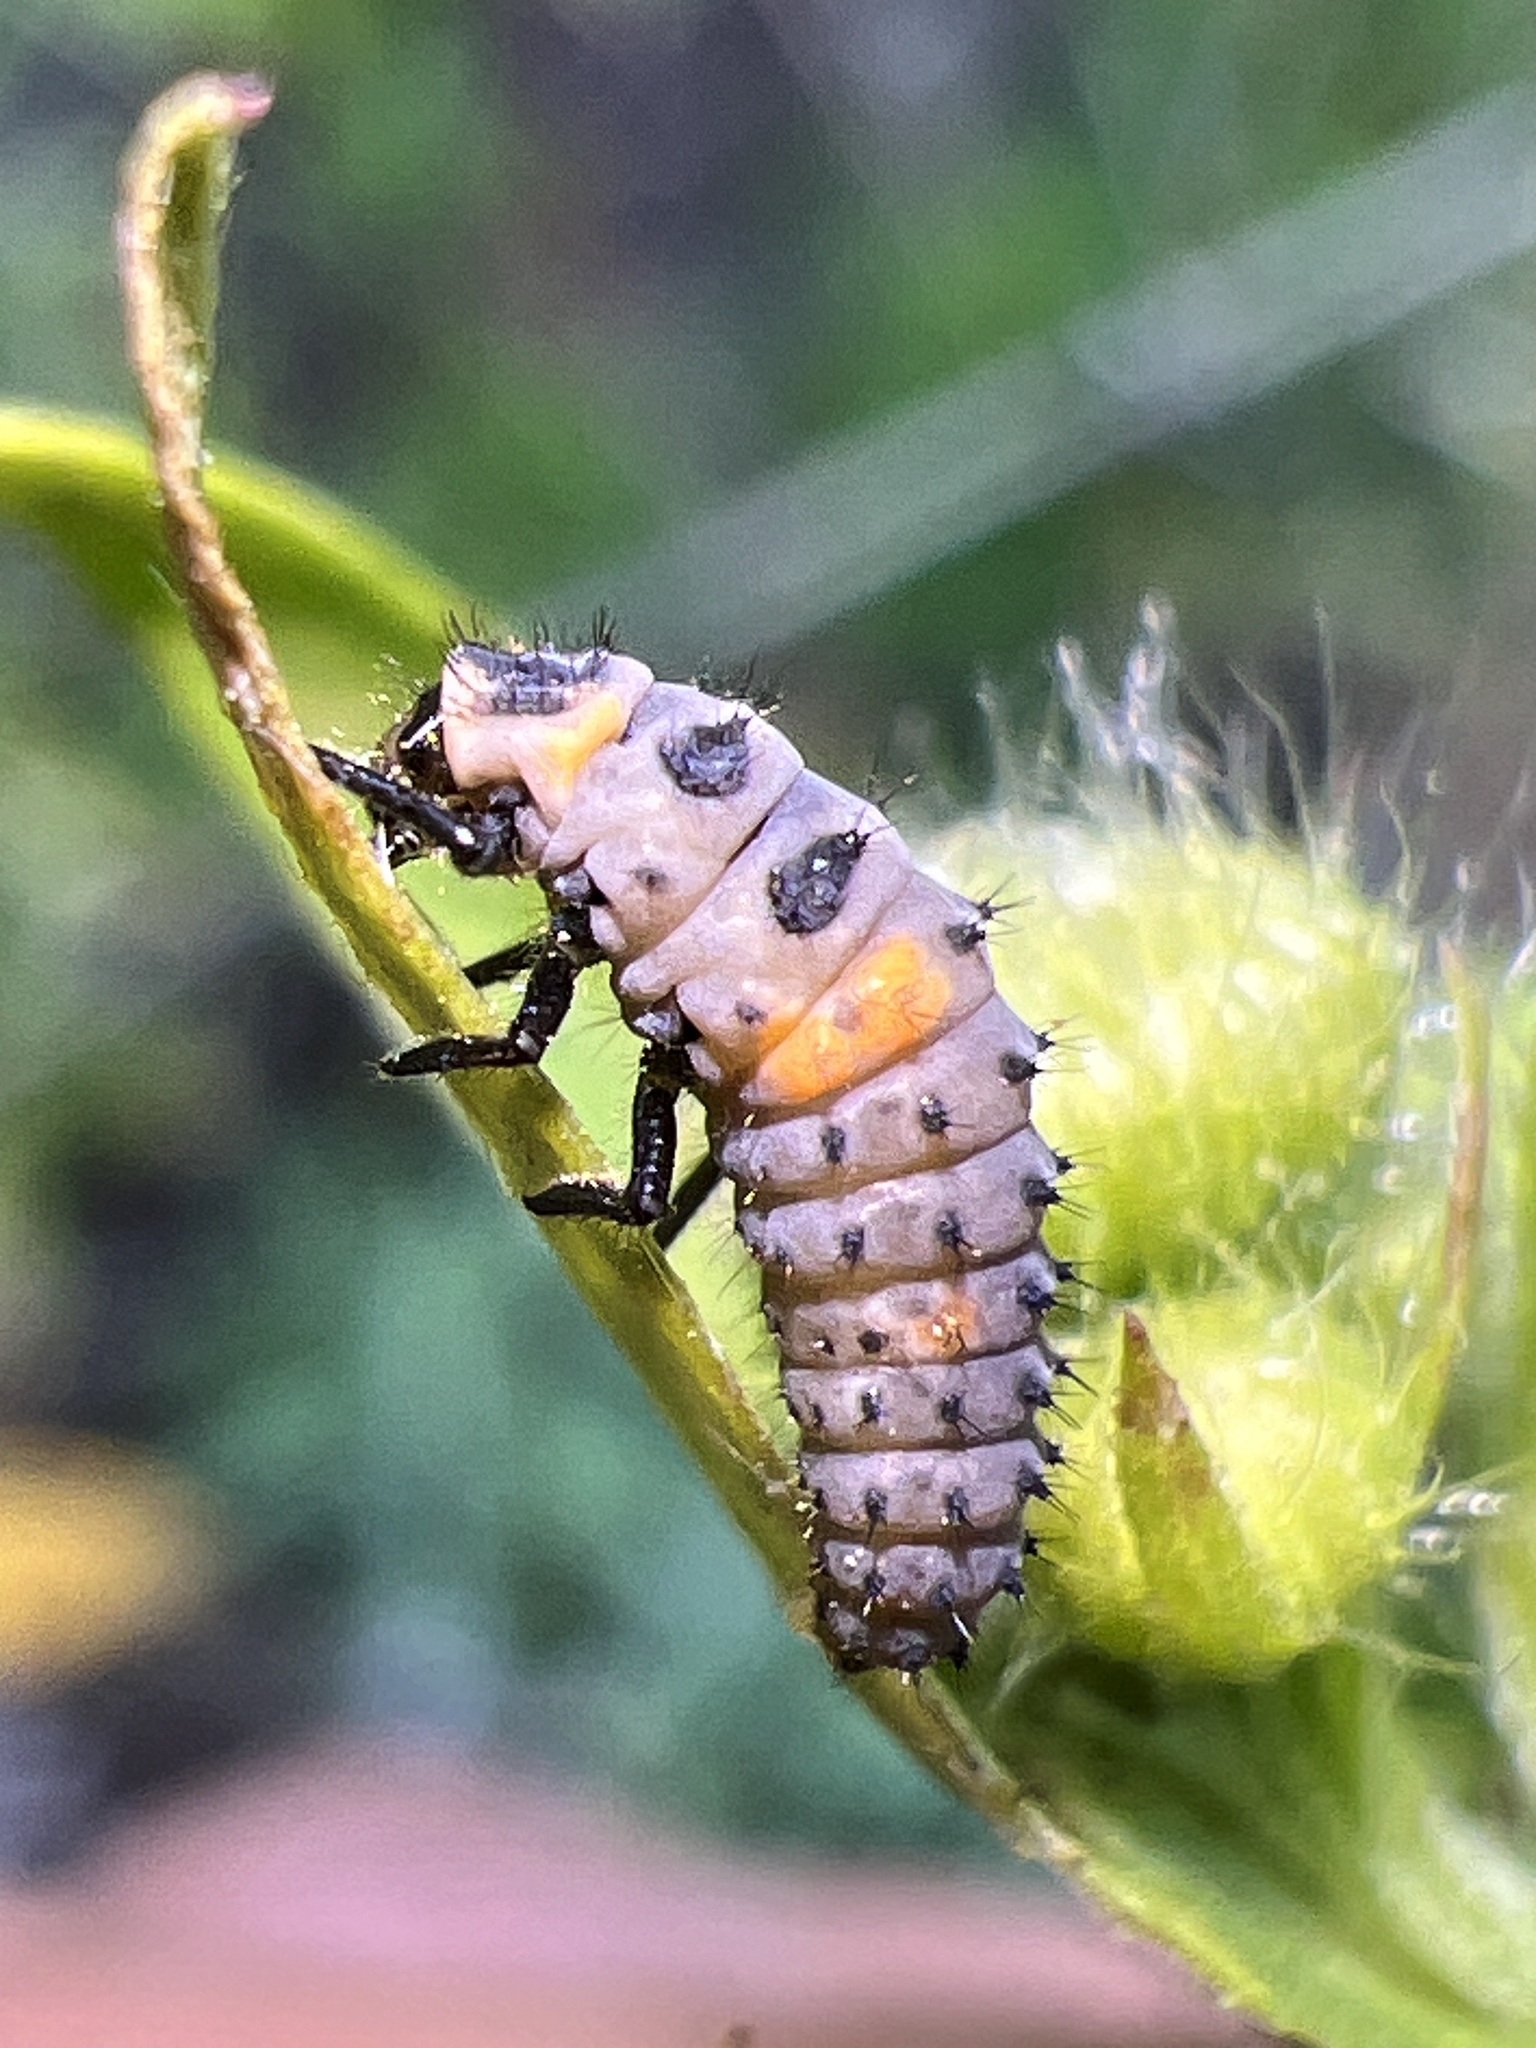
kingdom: Animalia
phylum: Arthropoda
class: Insecta
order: Coleoptera
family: Coccinellidae
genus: Coccinella
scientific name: Coccinella septempunctata
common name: Sevenspotted lady beetle
